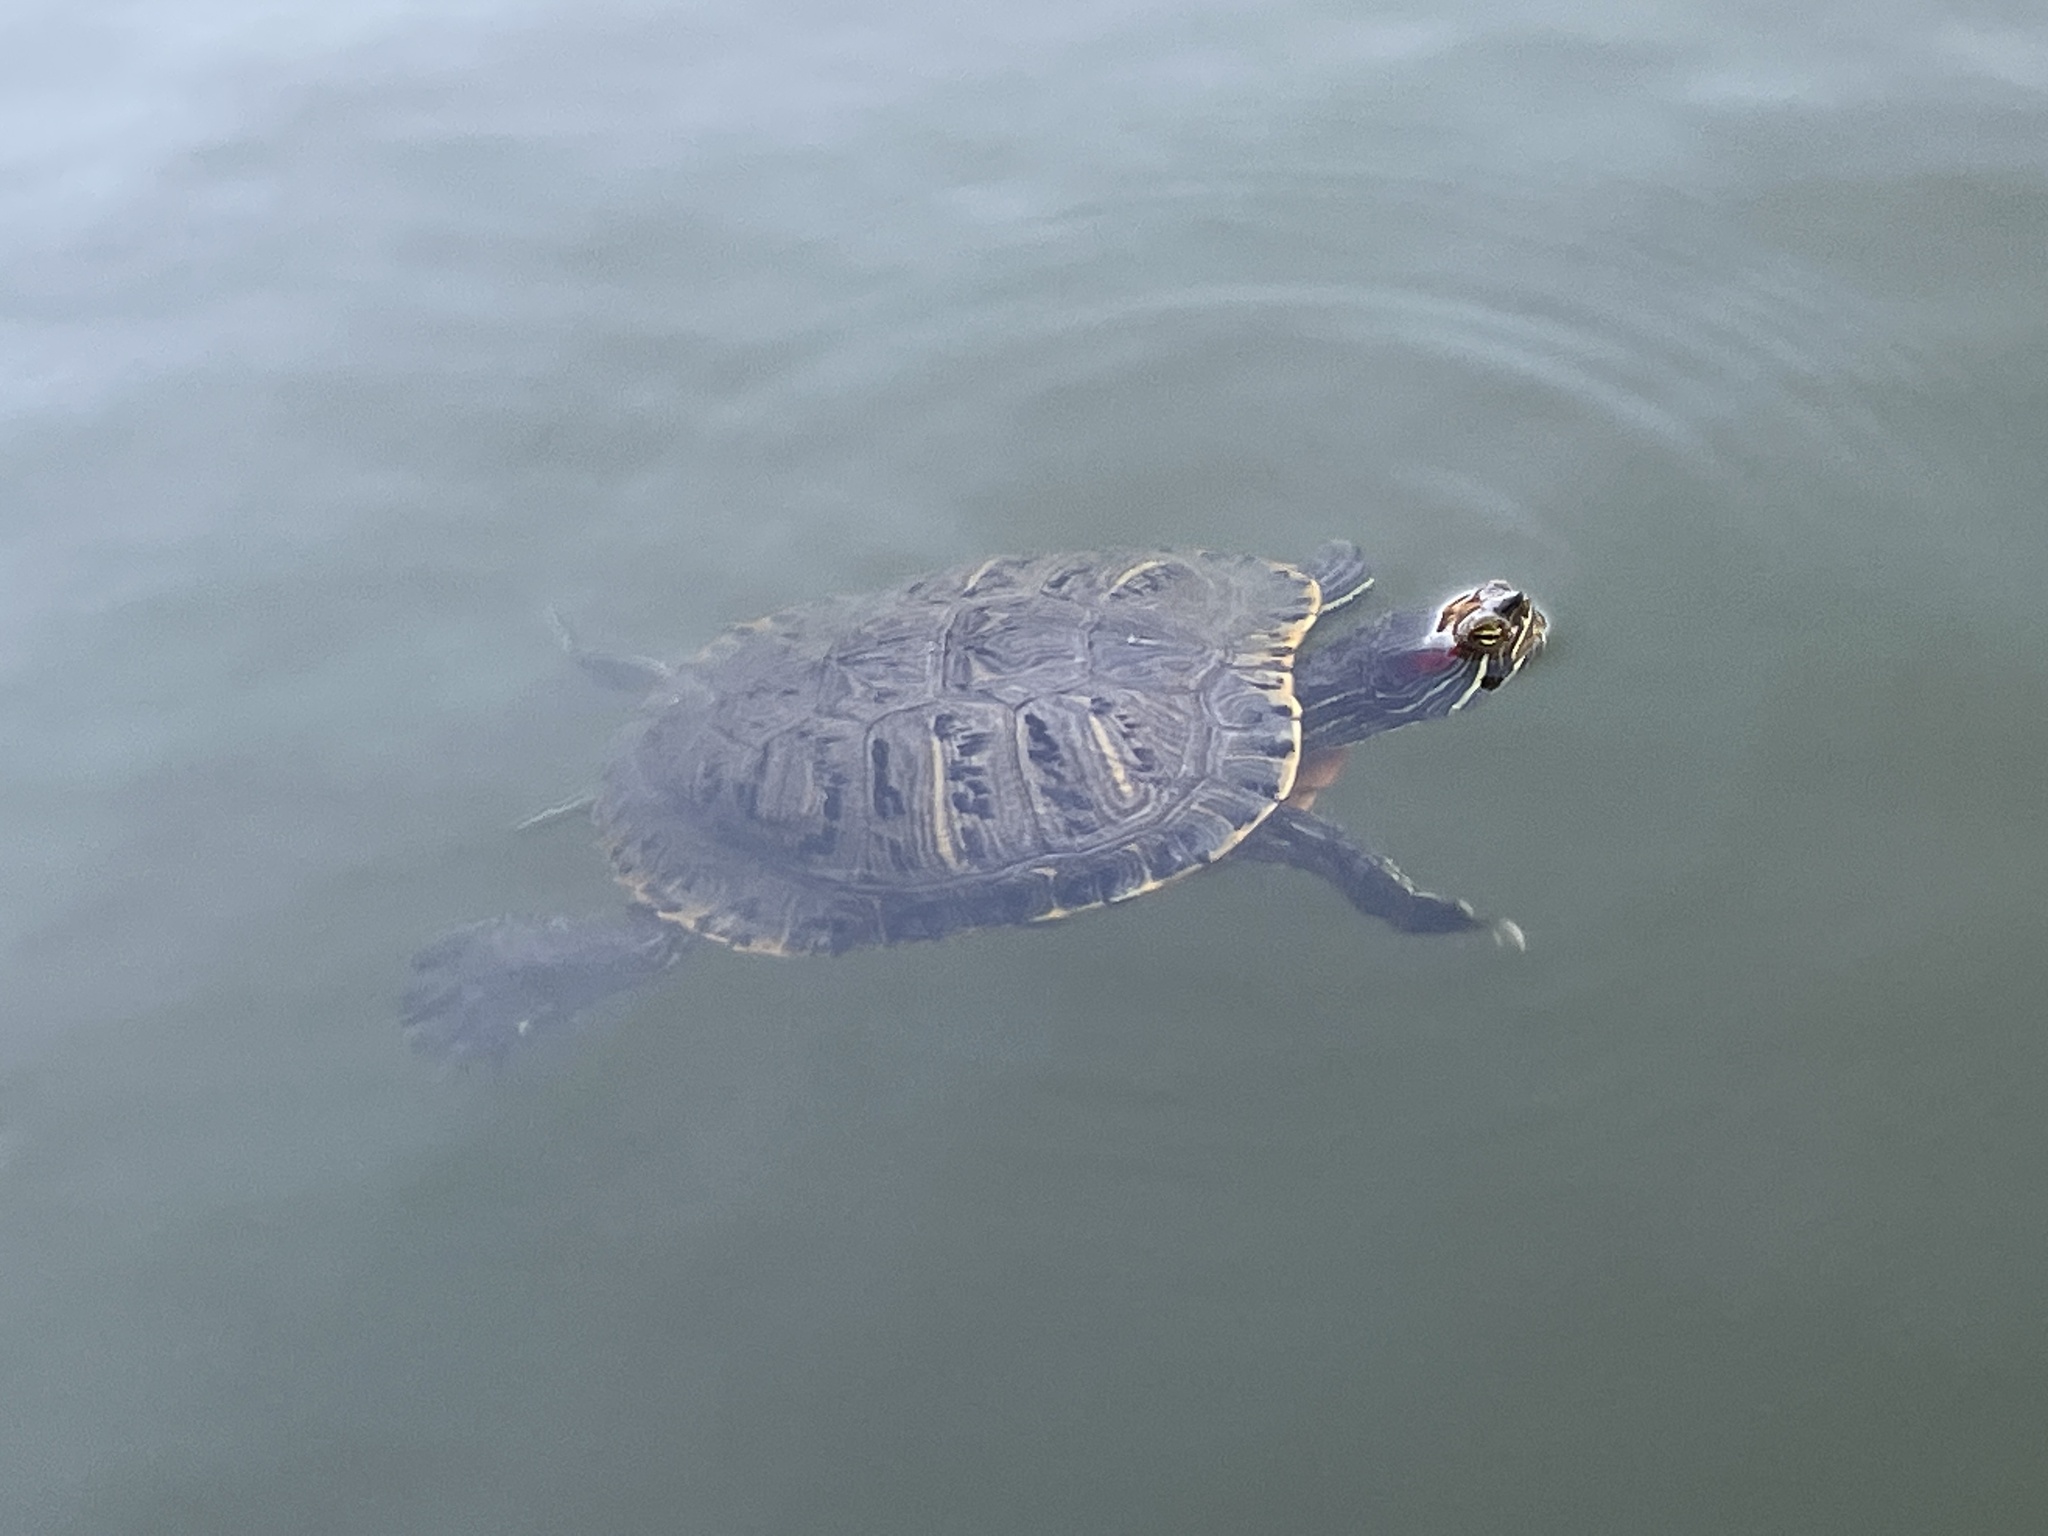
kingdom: Animalia
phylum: Chordata
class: Testudines
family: Emydidae
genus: Trachemys
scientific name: Trachemys scripta
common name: Slider
